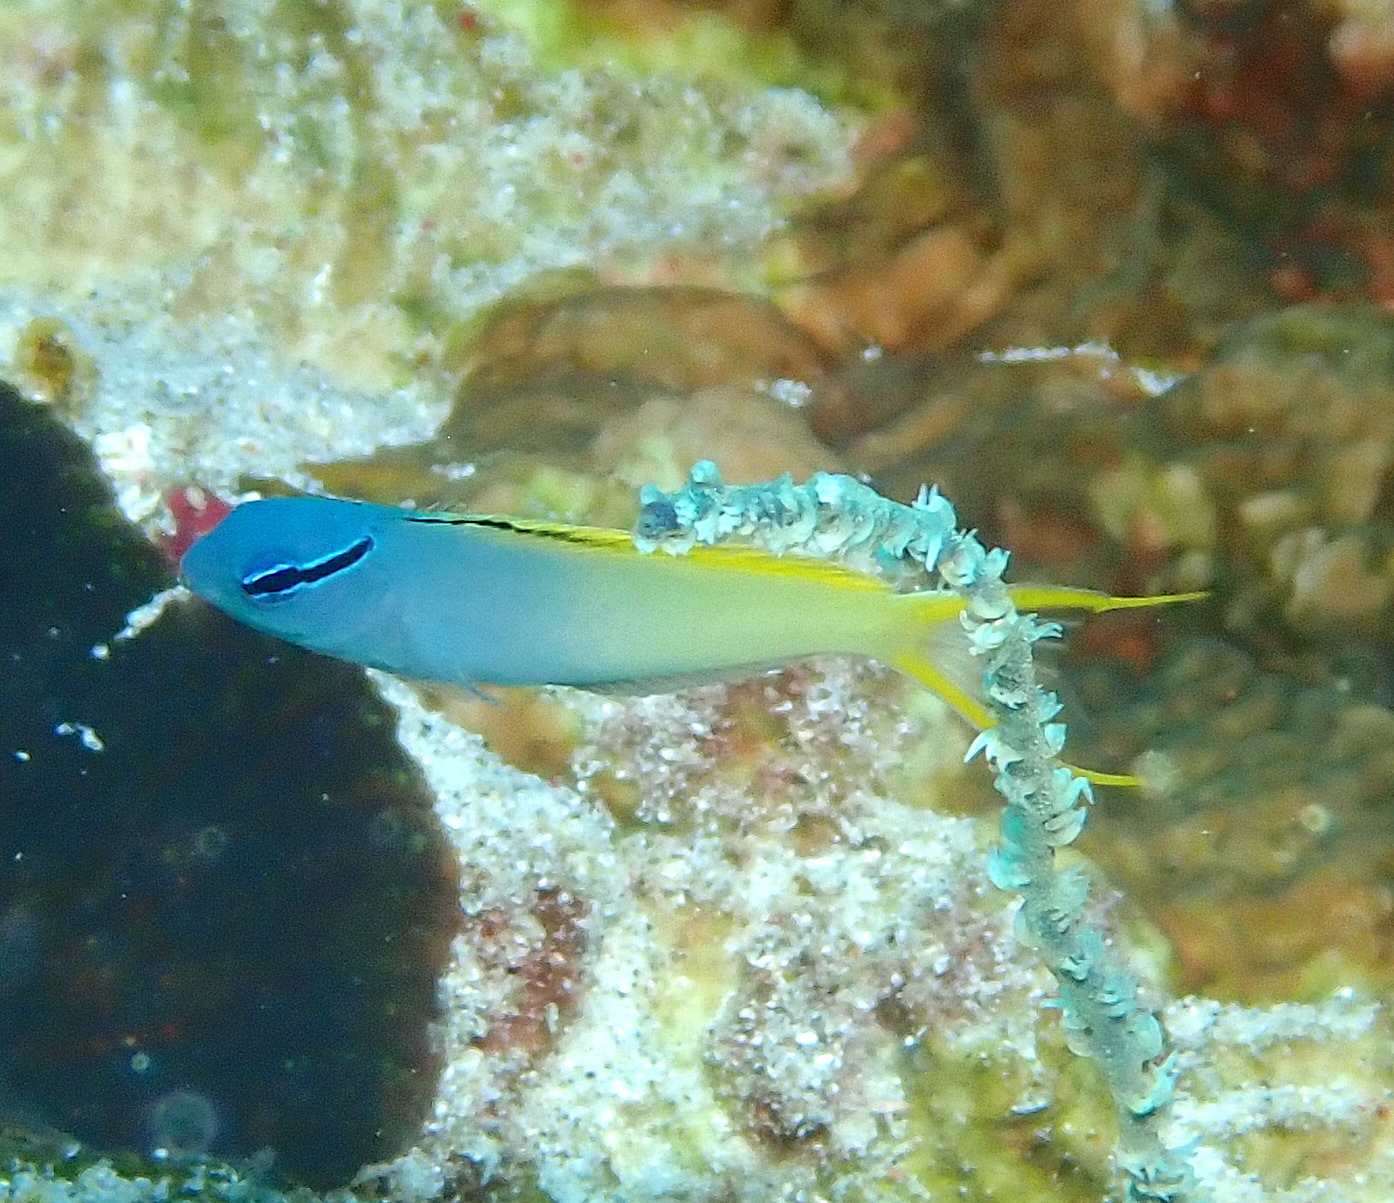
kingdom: Animalia
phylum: Chordata
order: Perciformes
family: Blenniidae
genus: Meiacanthus
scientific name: Meiacanthus atrodorsalis
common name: Eye-lash harptail-blenny
